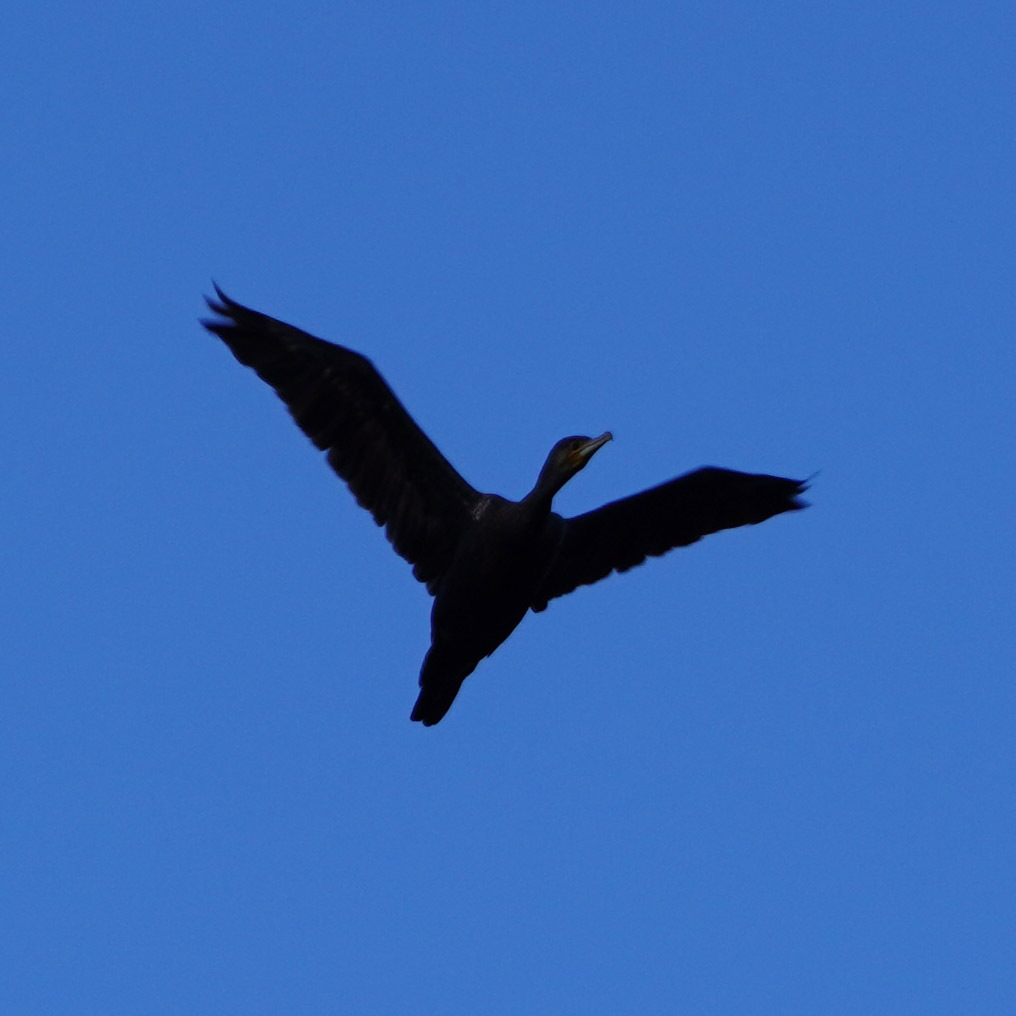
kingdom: Animalia
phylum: Chordata
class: Aves
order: Suliformes
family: Phalacrocoracidae
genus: Phalacrocorax
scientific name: Phalacrocorax carbo
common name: Great cormorant
